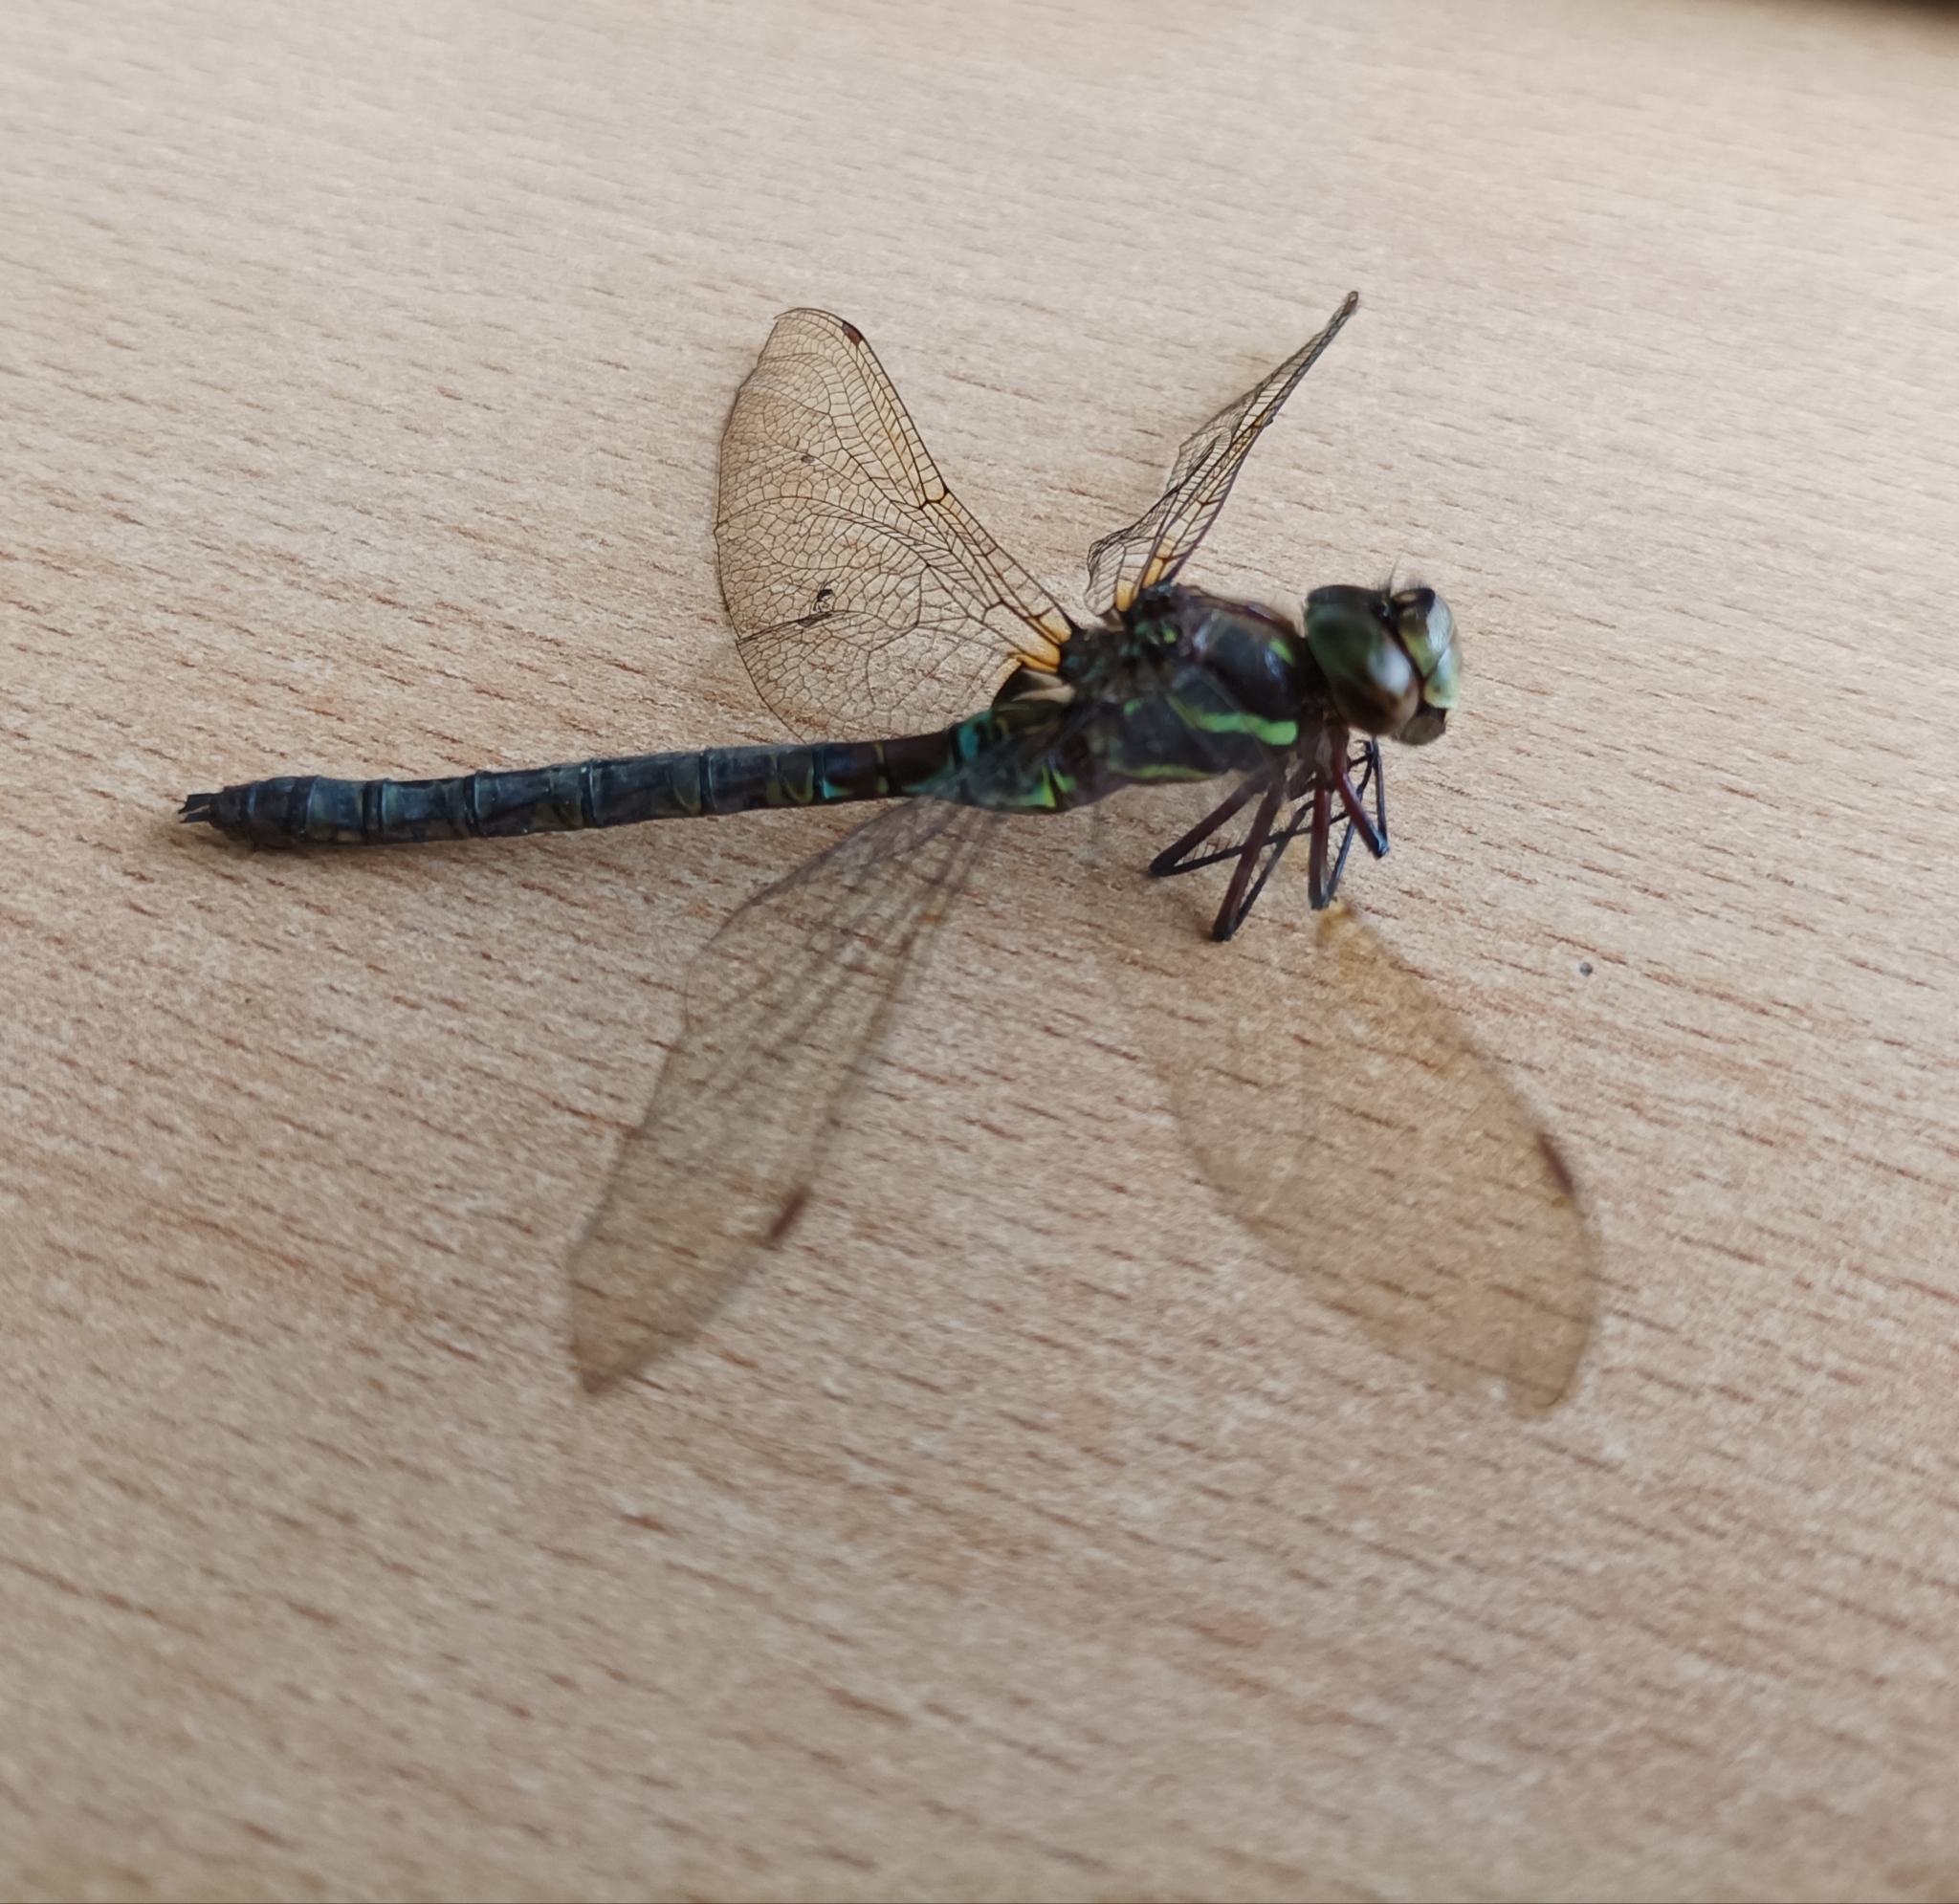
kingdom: Animalia
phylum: Arthropoda
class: Insecta
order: Odonata
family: Aeshnidae
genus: Rhionaeschna
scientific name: Rhionaeschna marchali
